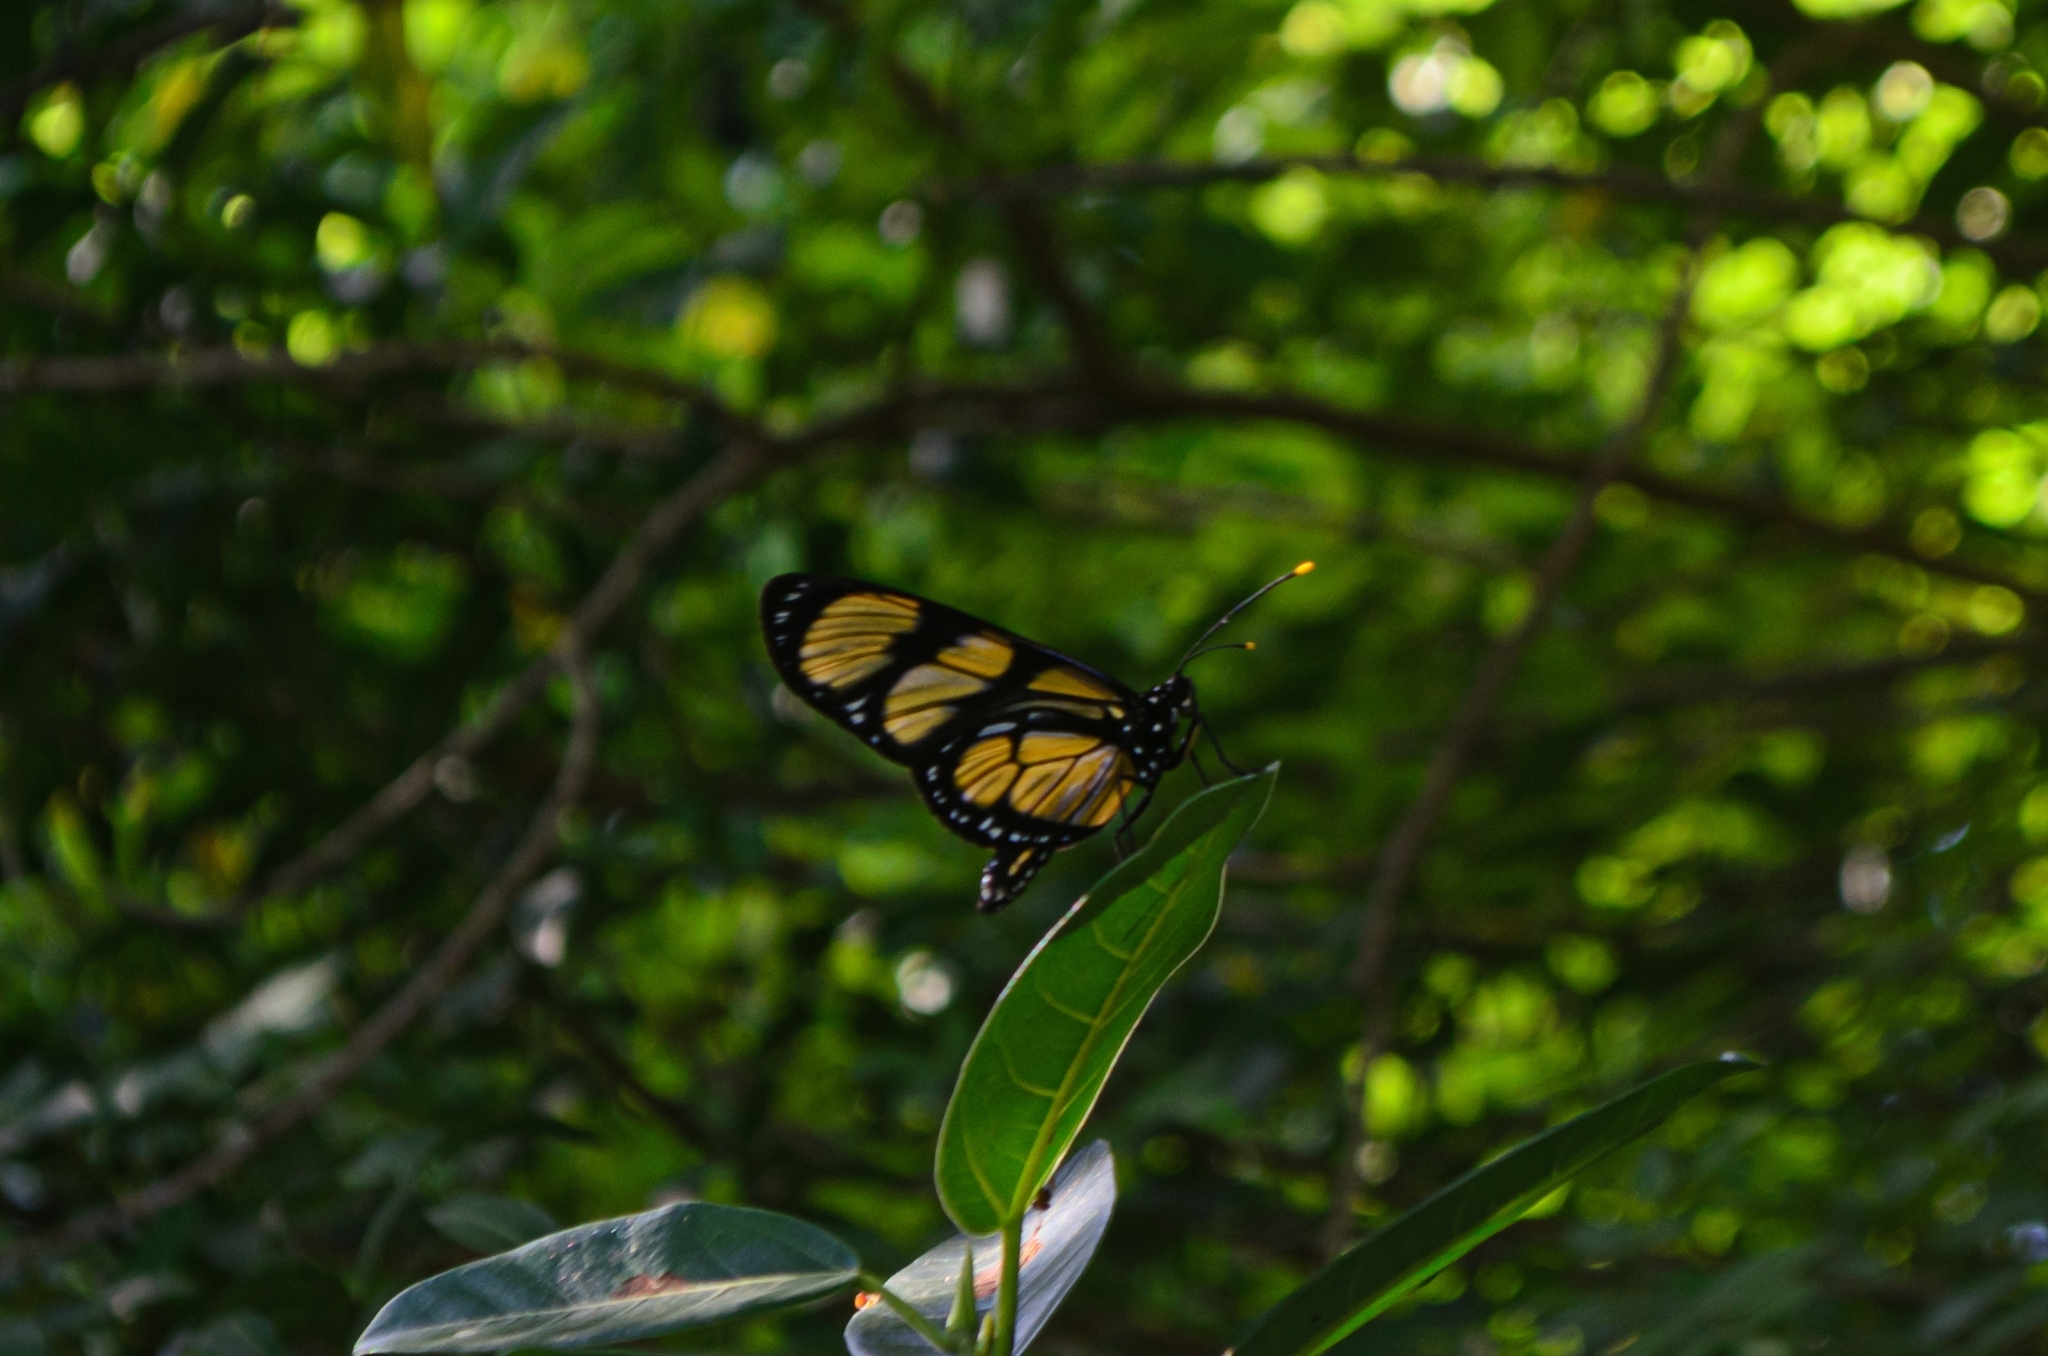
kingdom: Animalia
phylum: Arthropoda
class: Insecta
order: Lepidoptera
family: Nymphalidae
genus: Methona
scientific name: Methona themisto
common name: Themisto amberwing
